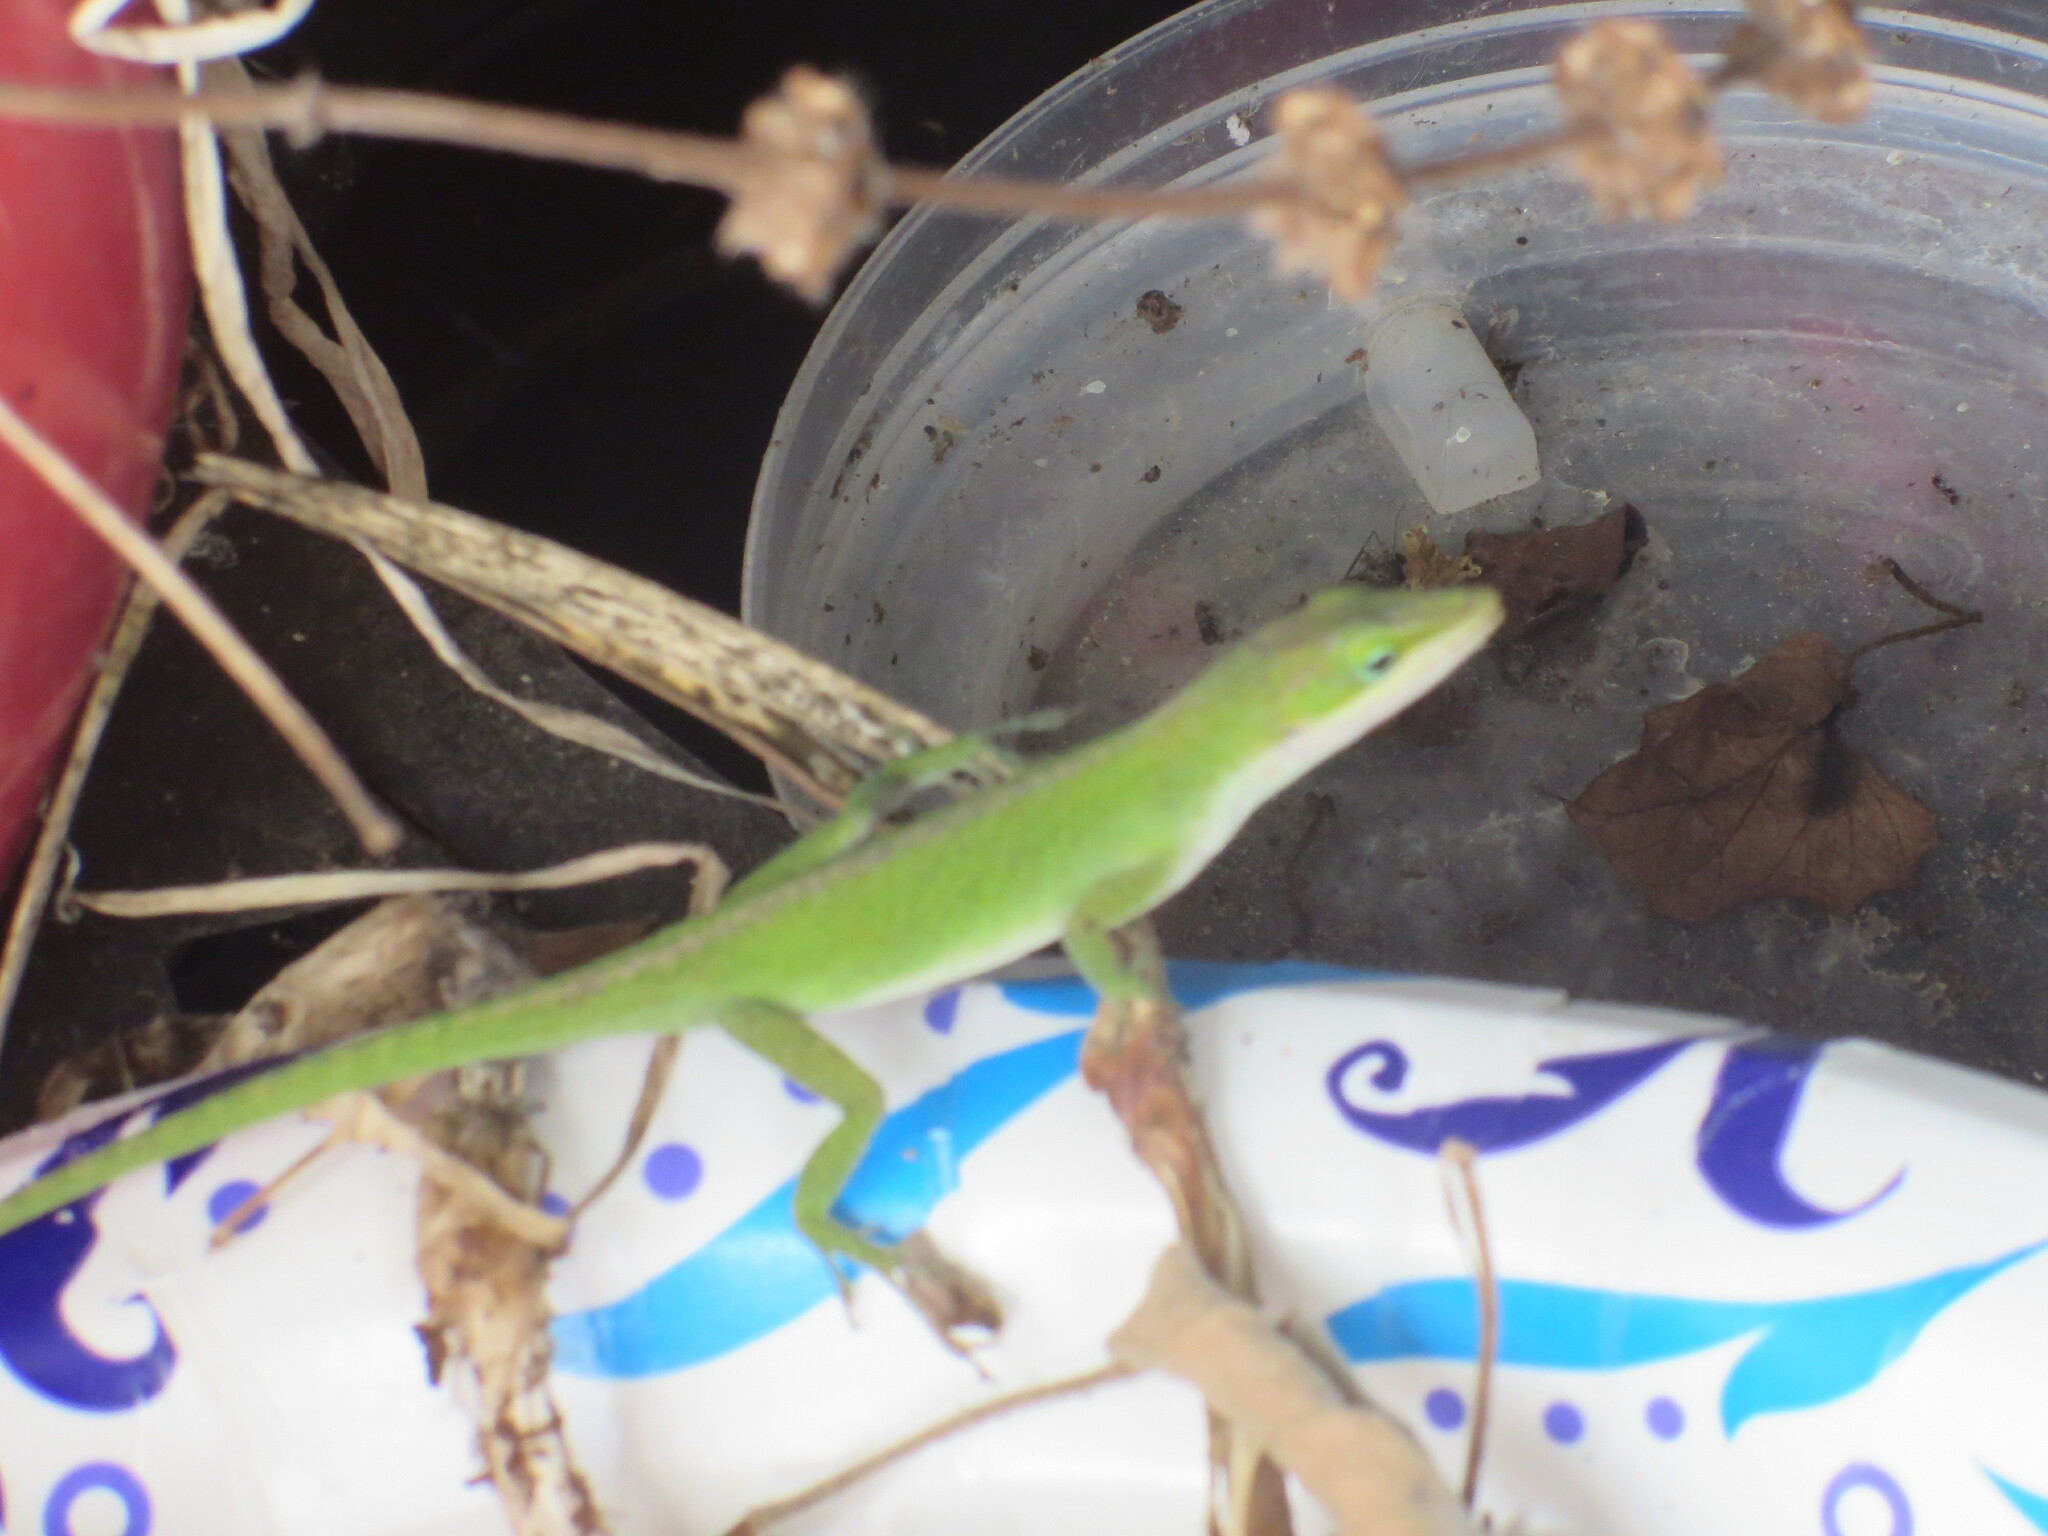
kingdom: Animalia
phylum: Chordata
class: Squamata
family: Dactyloidae
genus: Anolis
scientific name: Anolis carolinensis
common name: Green anole
